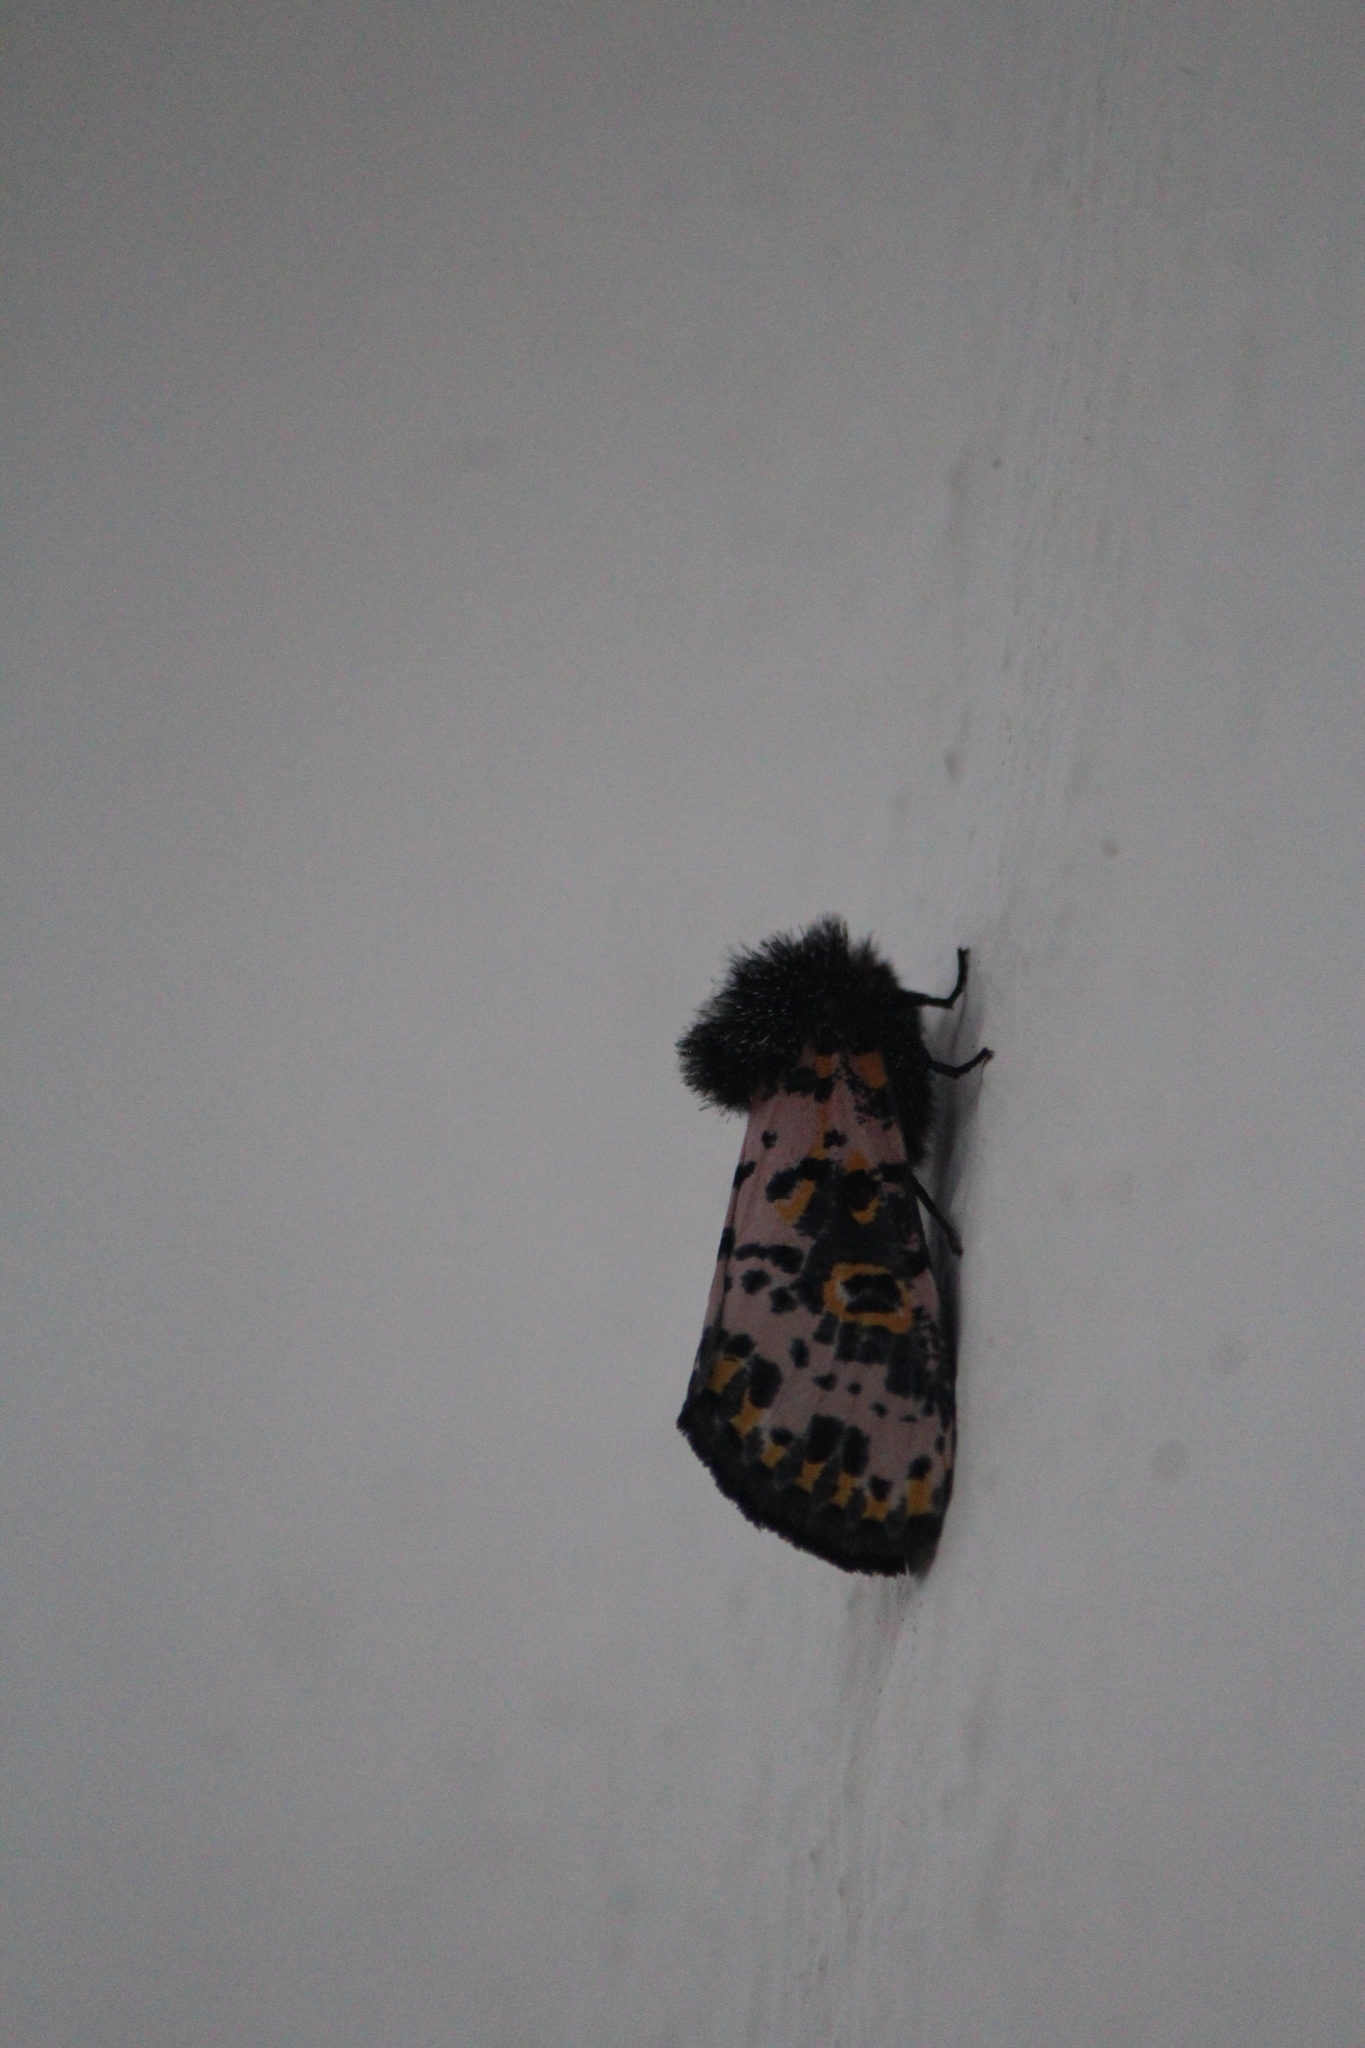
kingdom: Animalia
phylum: Arthropoda
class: Insecta
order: Lepidoptera
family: Noctuidae
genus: Xanthopastis
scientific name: Xanthopastis moctezuma
